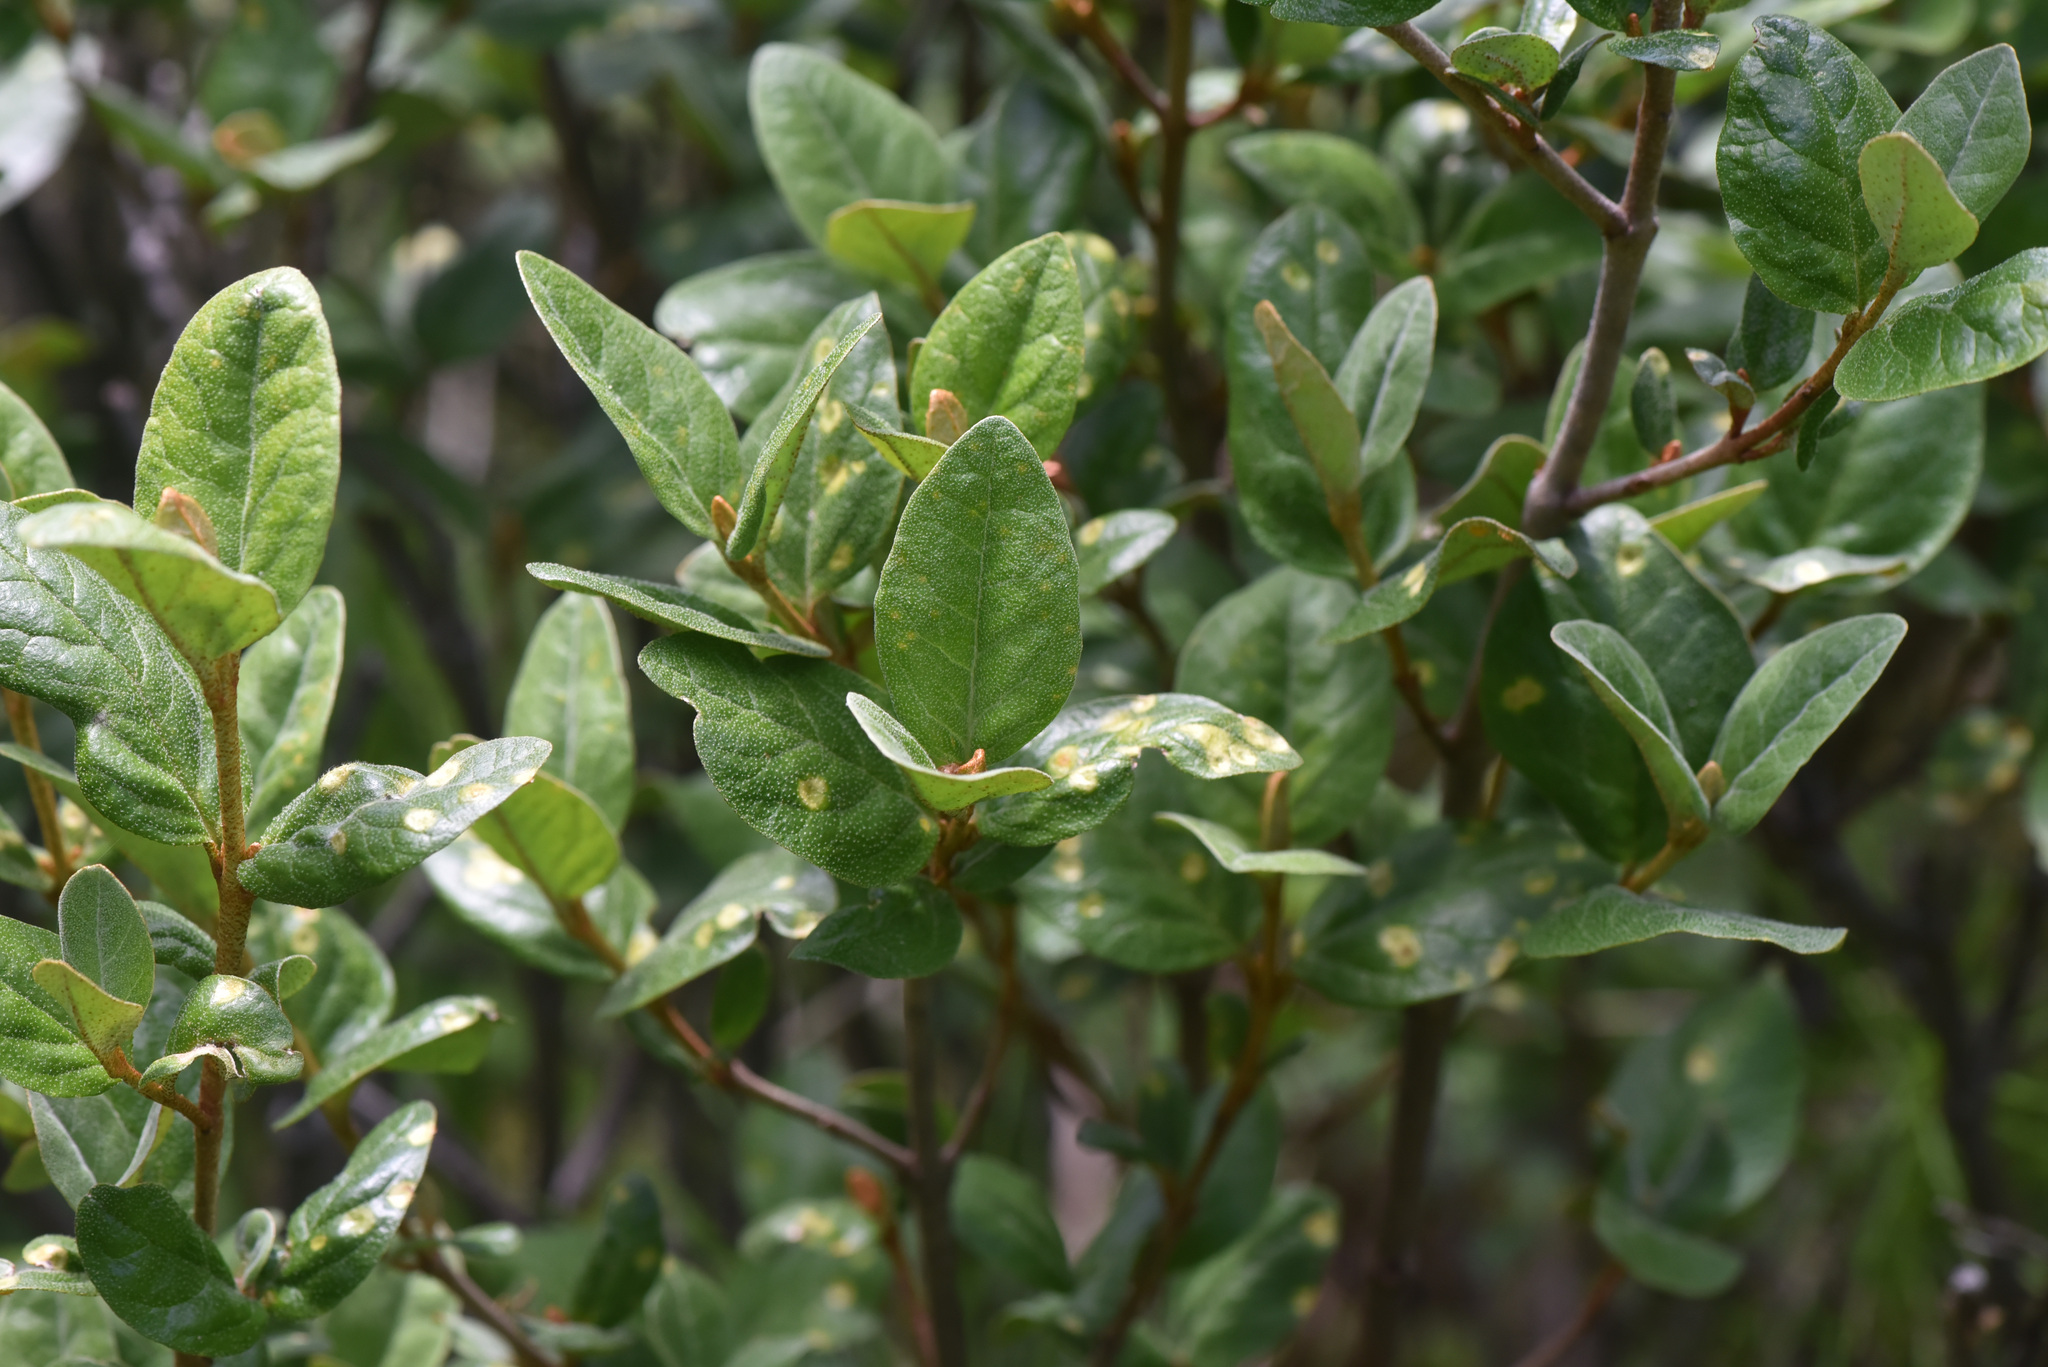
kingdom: Plantae
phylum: Tracheophyta
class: Magnoliopsida
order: Rosales
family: Elaeagnaceae
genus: Shepherdia
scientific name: Shepherdia canadensis
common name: Soapberry
